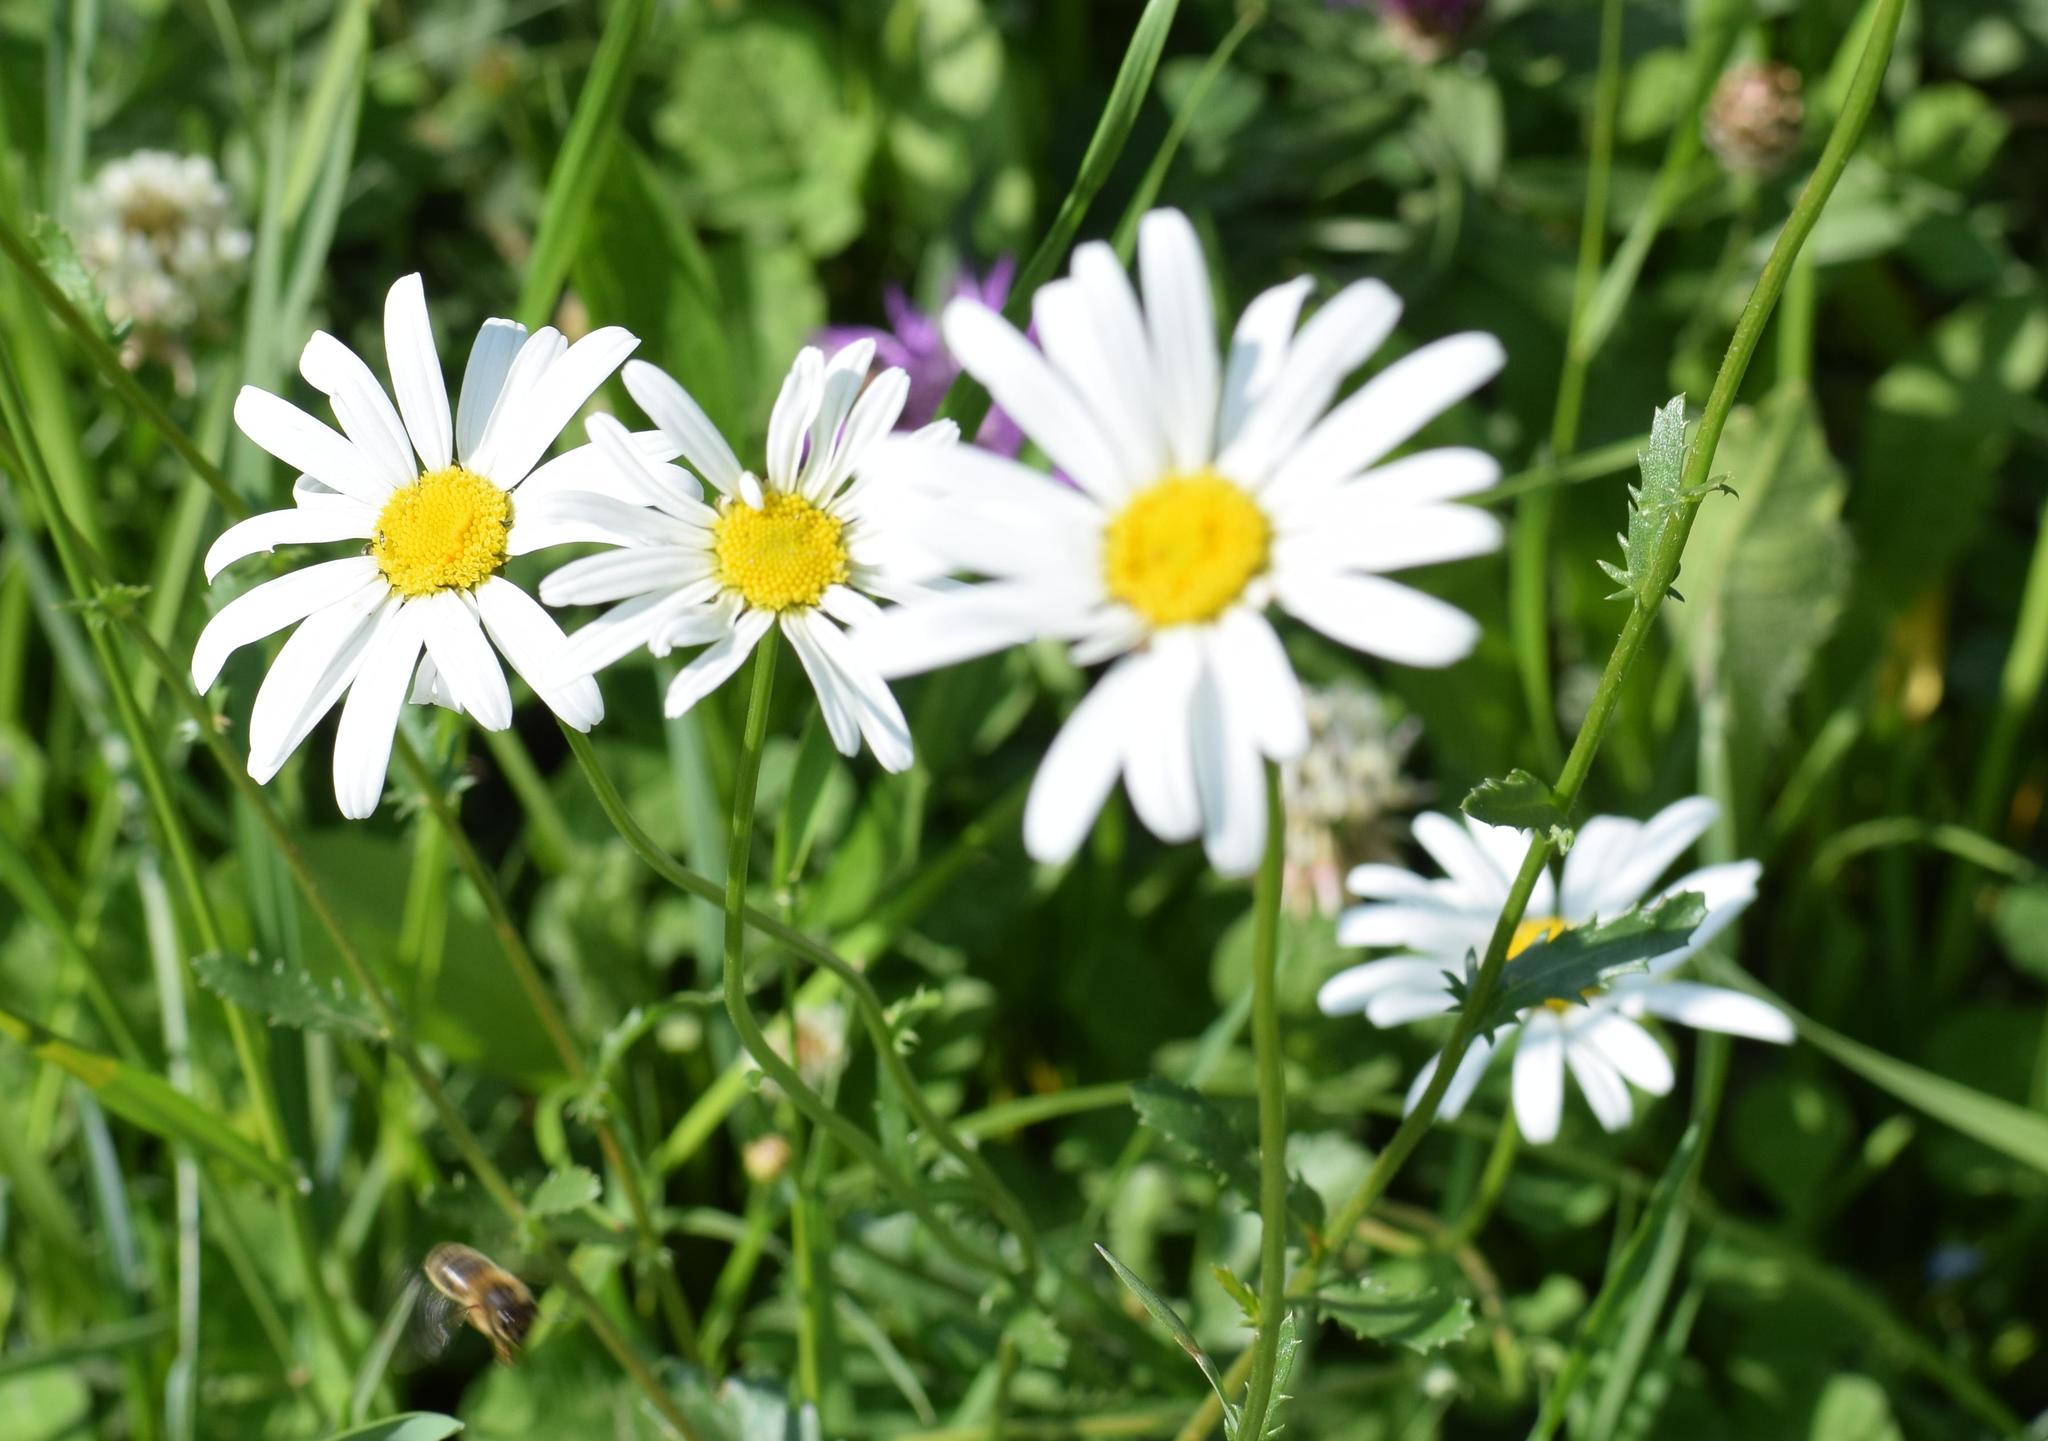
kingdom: Plantae
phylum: Tracheophyta
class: Magnoliopsida
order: Asterales
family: Asteraceae
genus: Leucanthemum
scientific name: Leucanthemum vulgare
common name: Oxeye daisy
